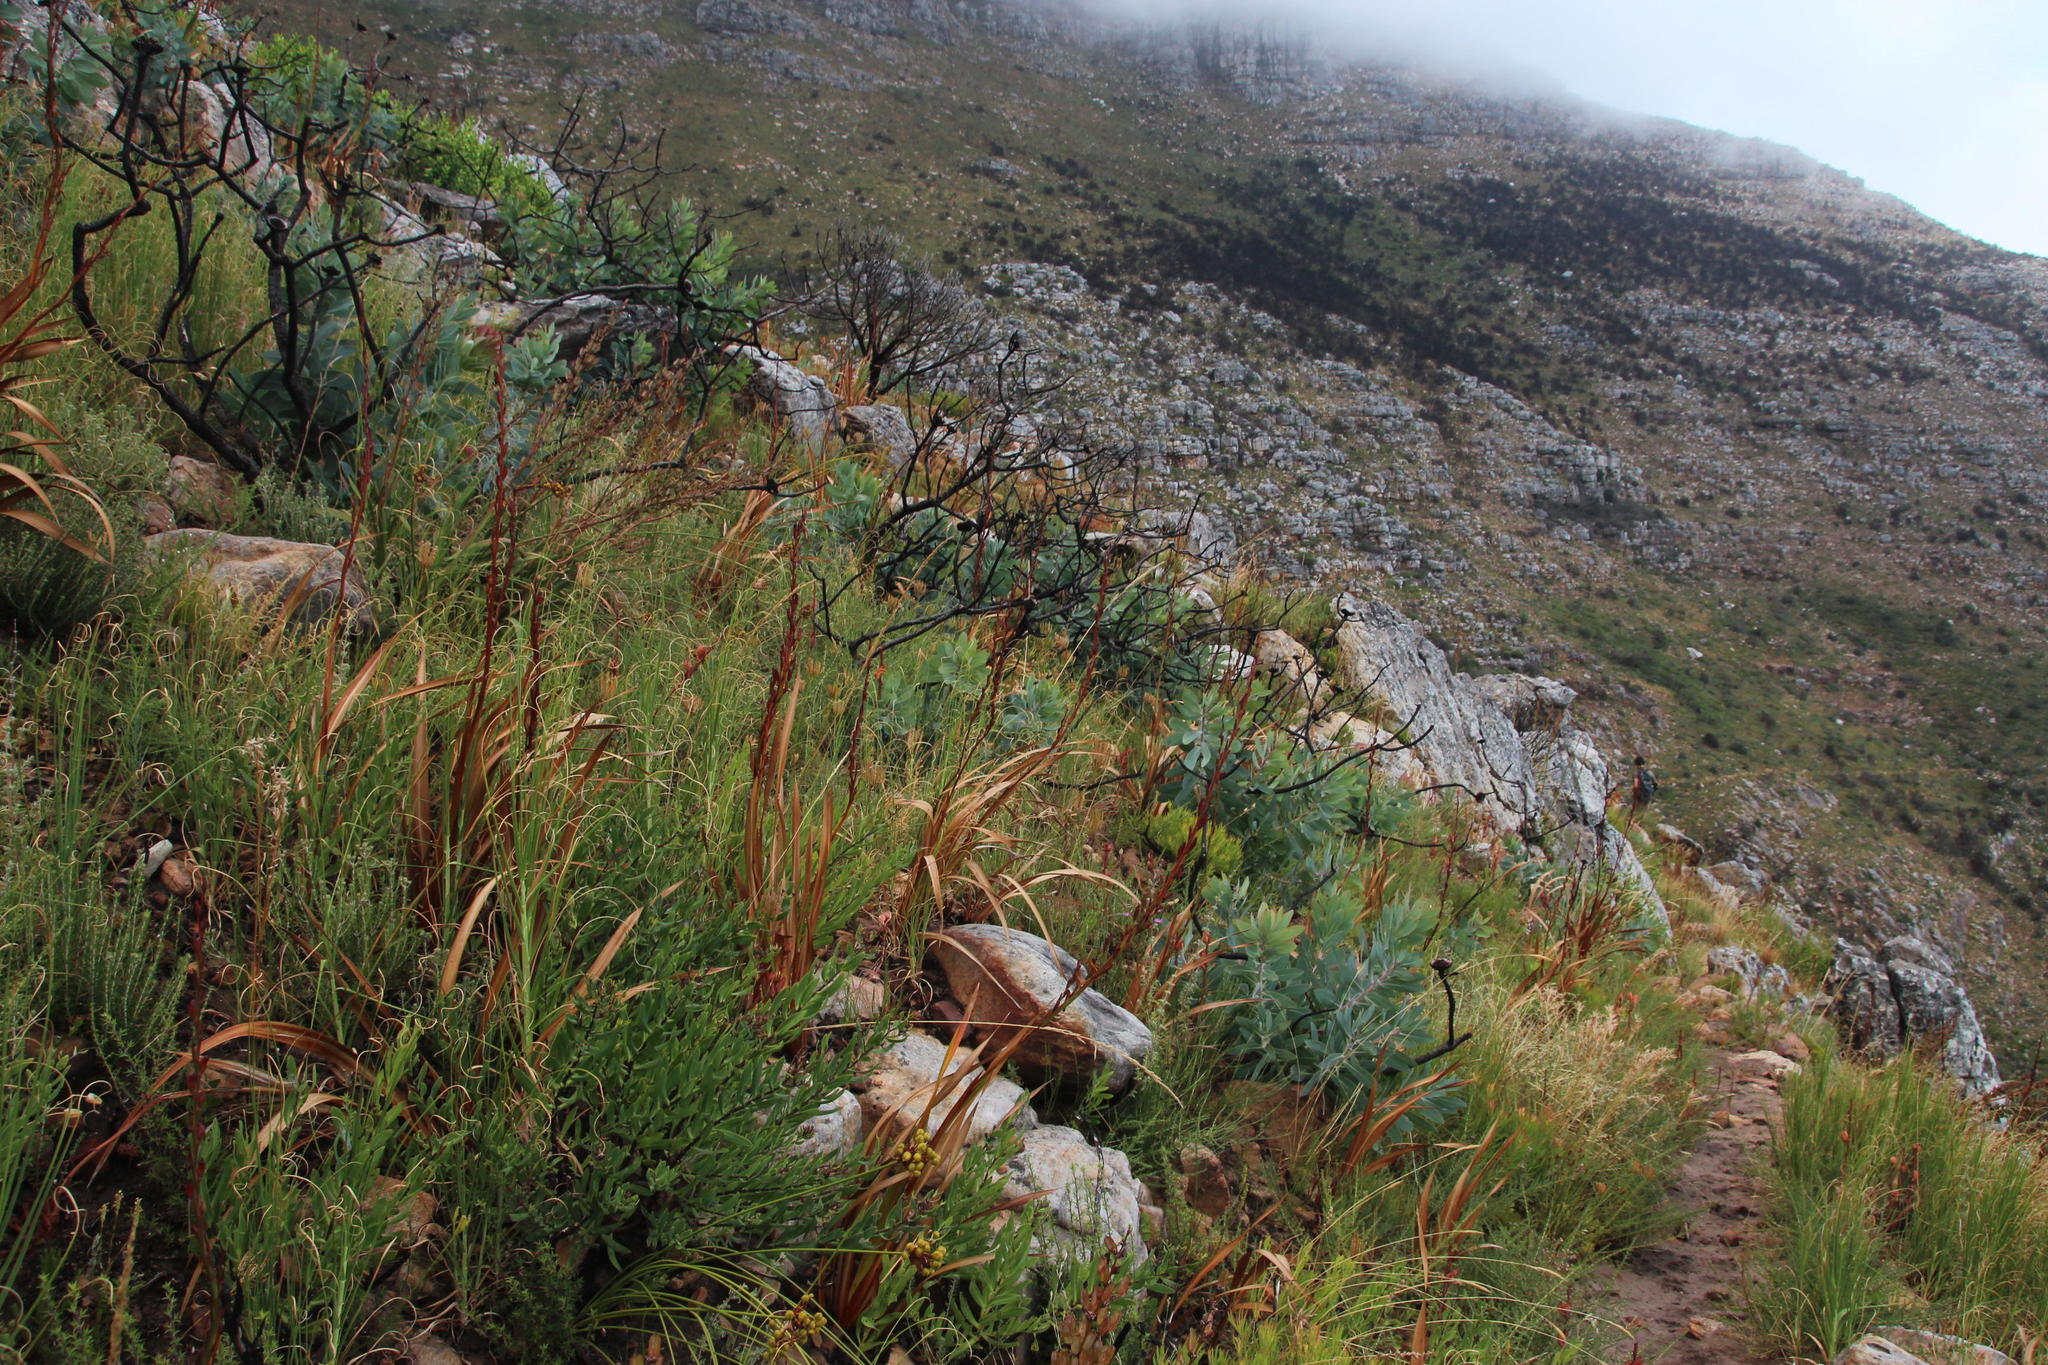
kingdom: Plantae
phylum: Tracheophyta
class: Magnoliopsida
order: Proteales
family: Proteaceae
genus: Protea
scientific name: Protea nitida
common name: Tree protea
